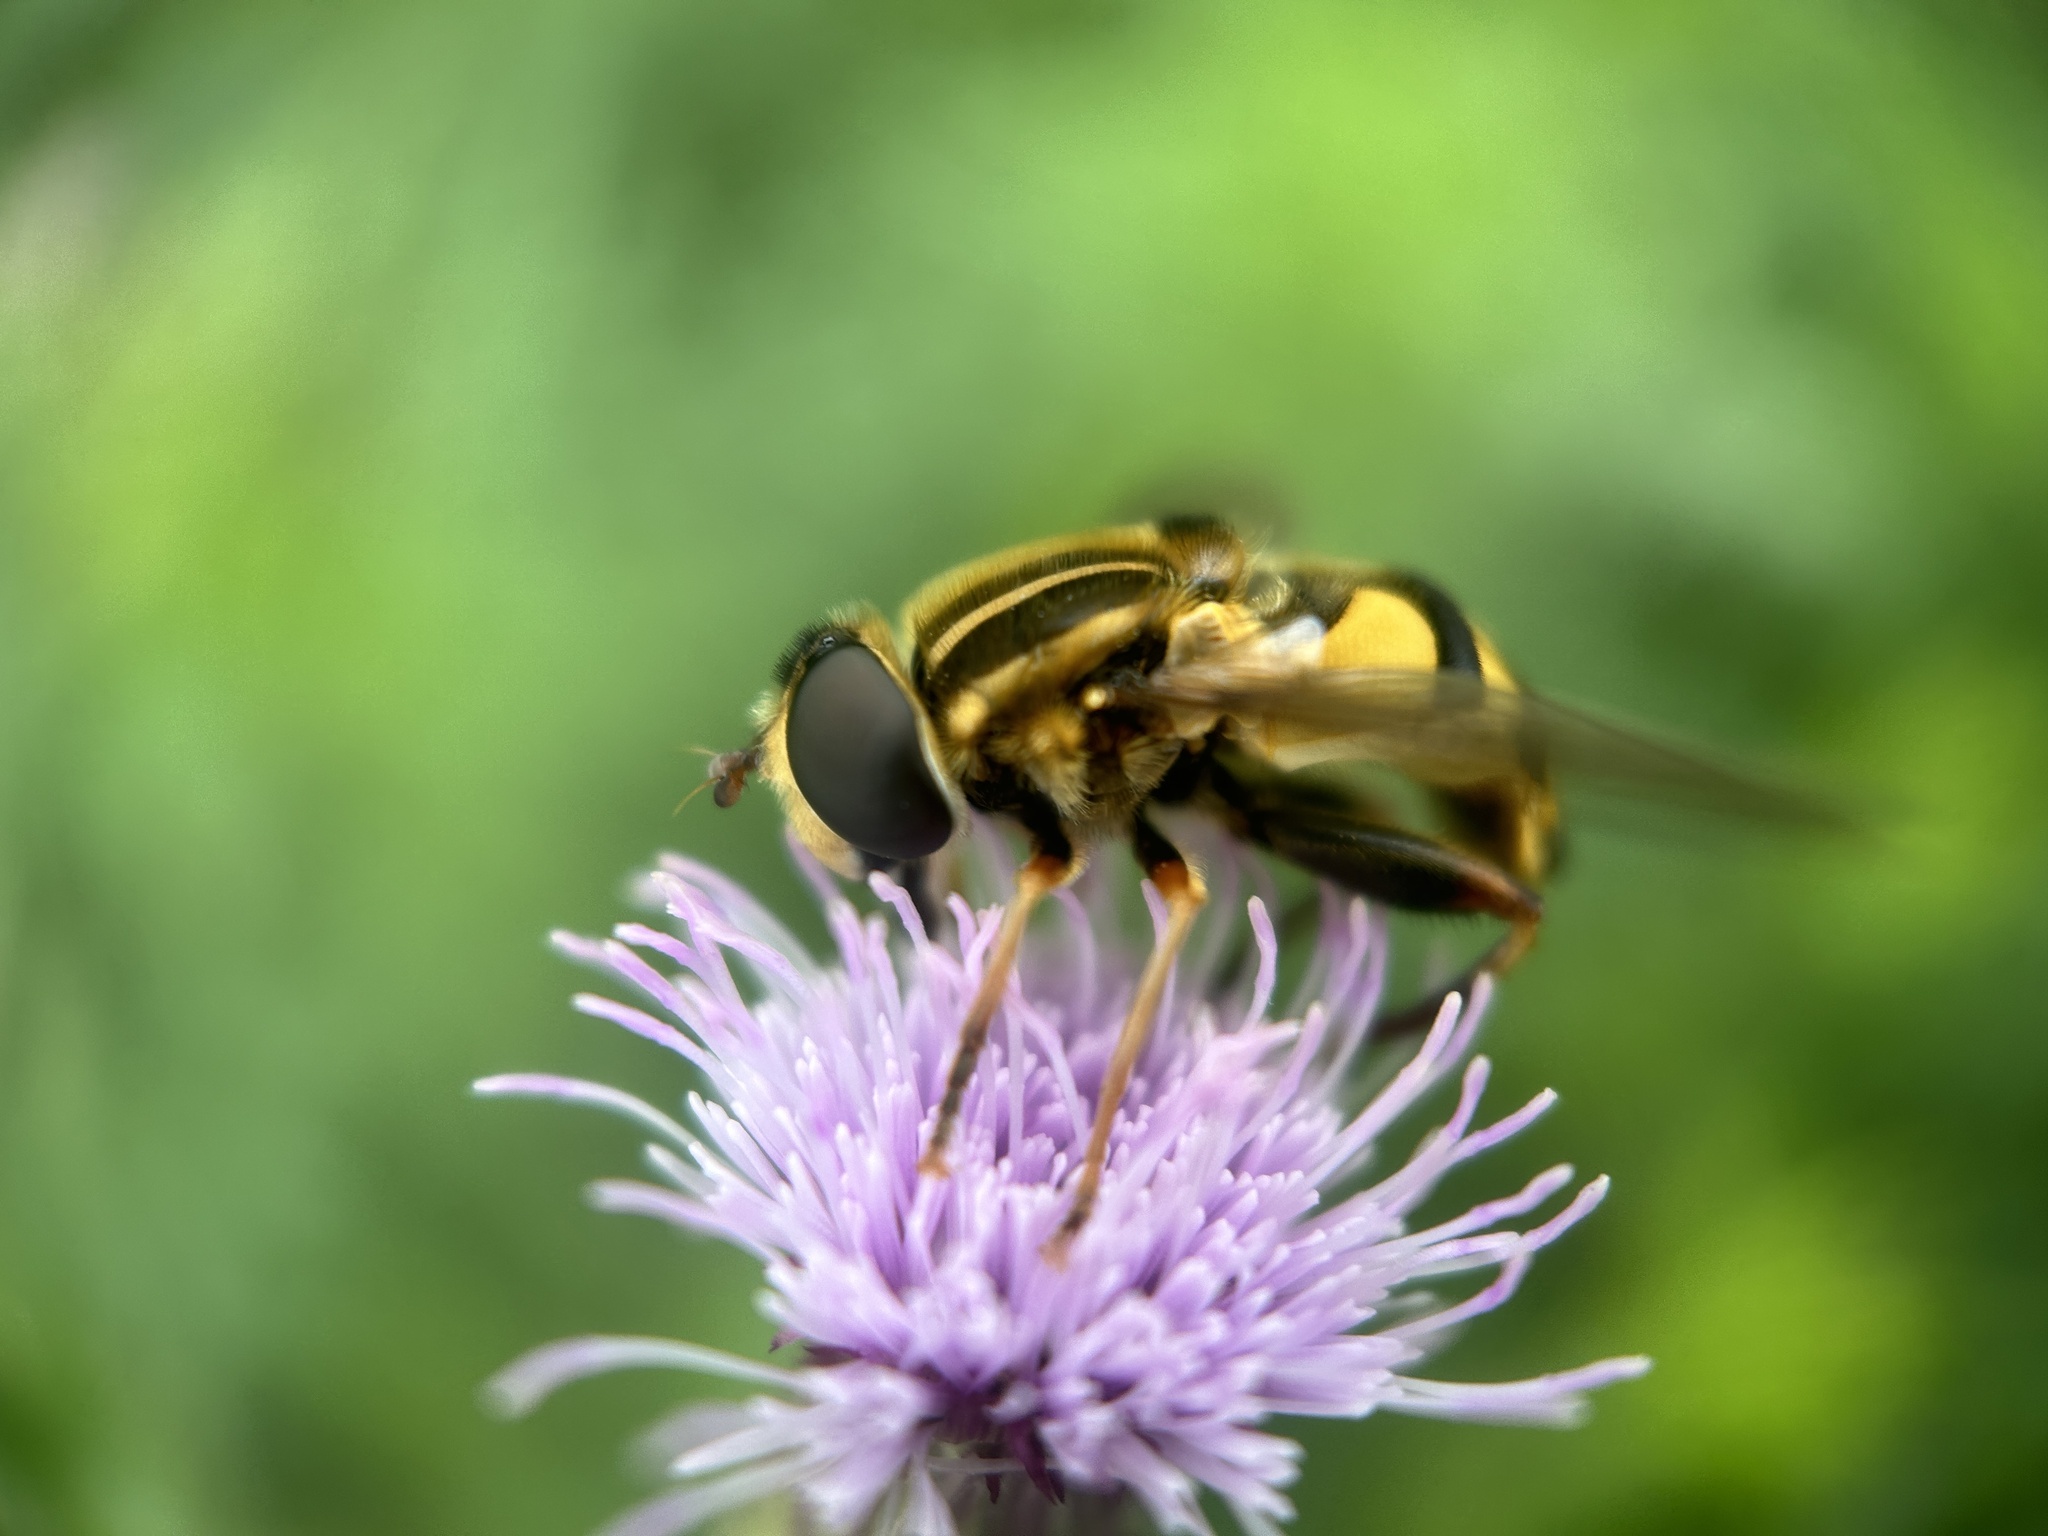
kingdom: Animalia
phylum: Arthropoda
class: Insecta
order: Diptera
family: Syrphidae
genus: Helophilus
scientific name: Helophilus fasciatus
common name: Narrow-headed marsh fly
